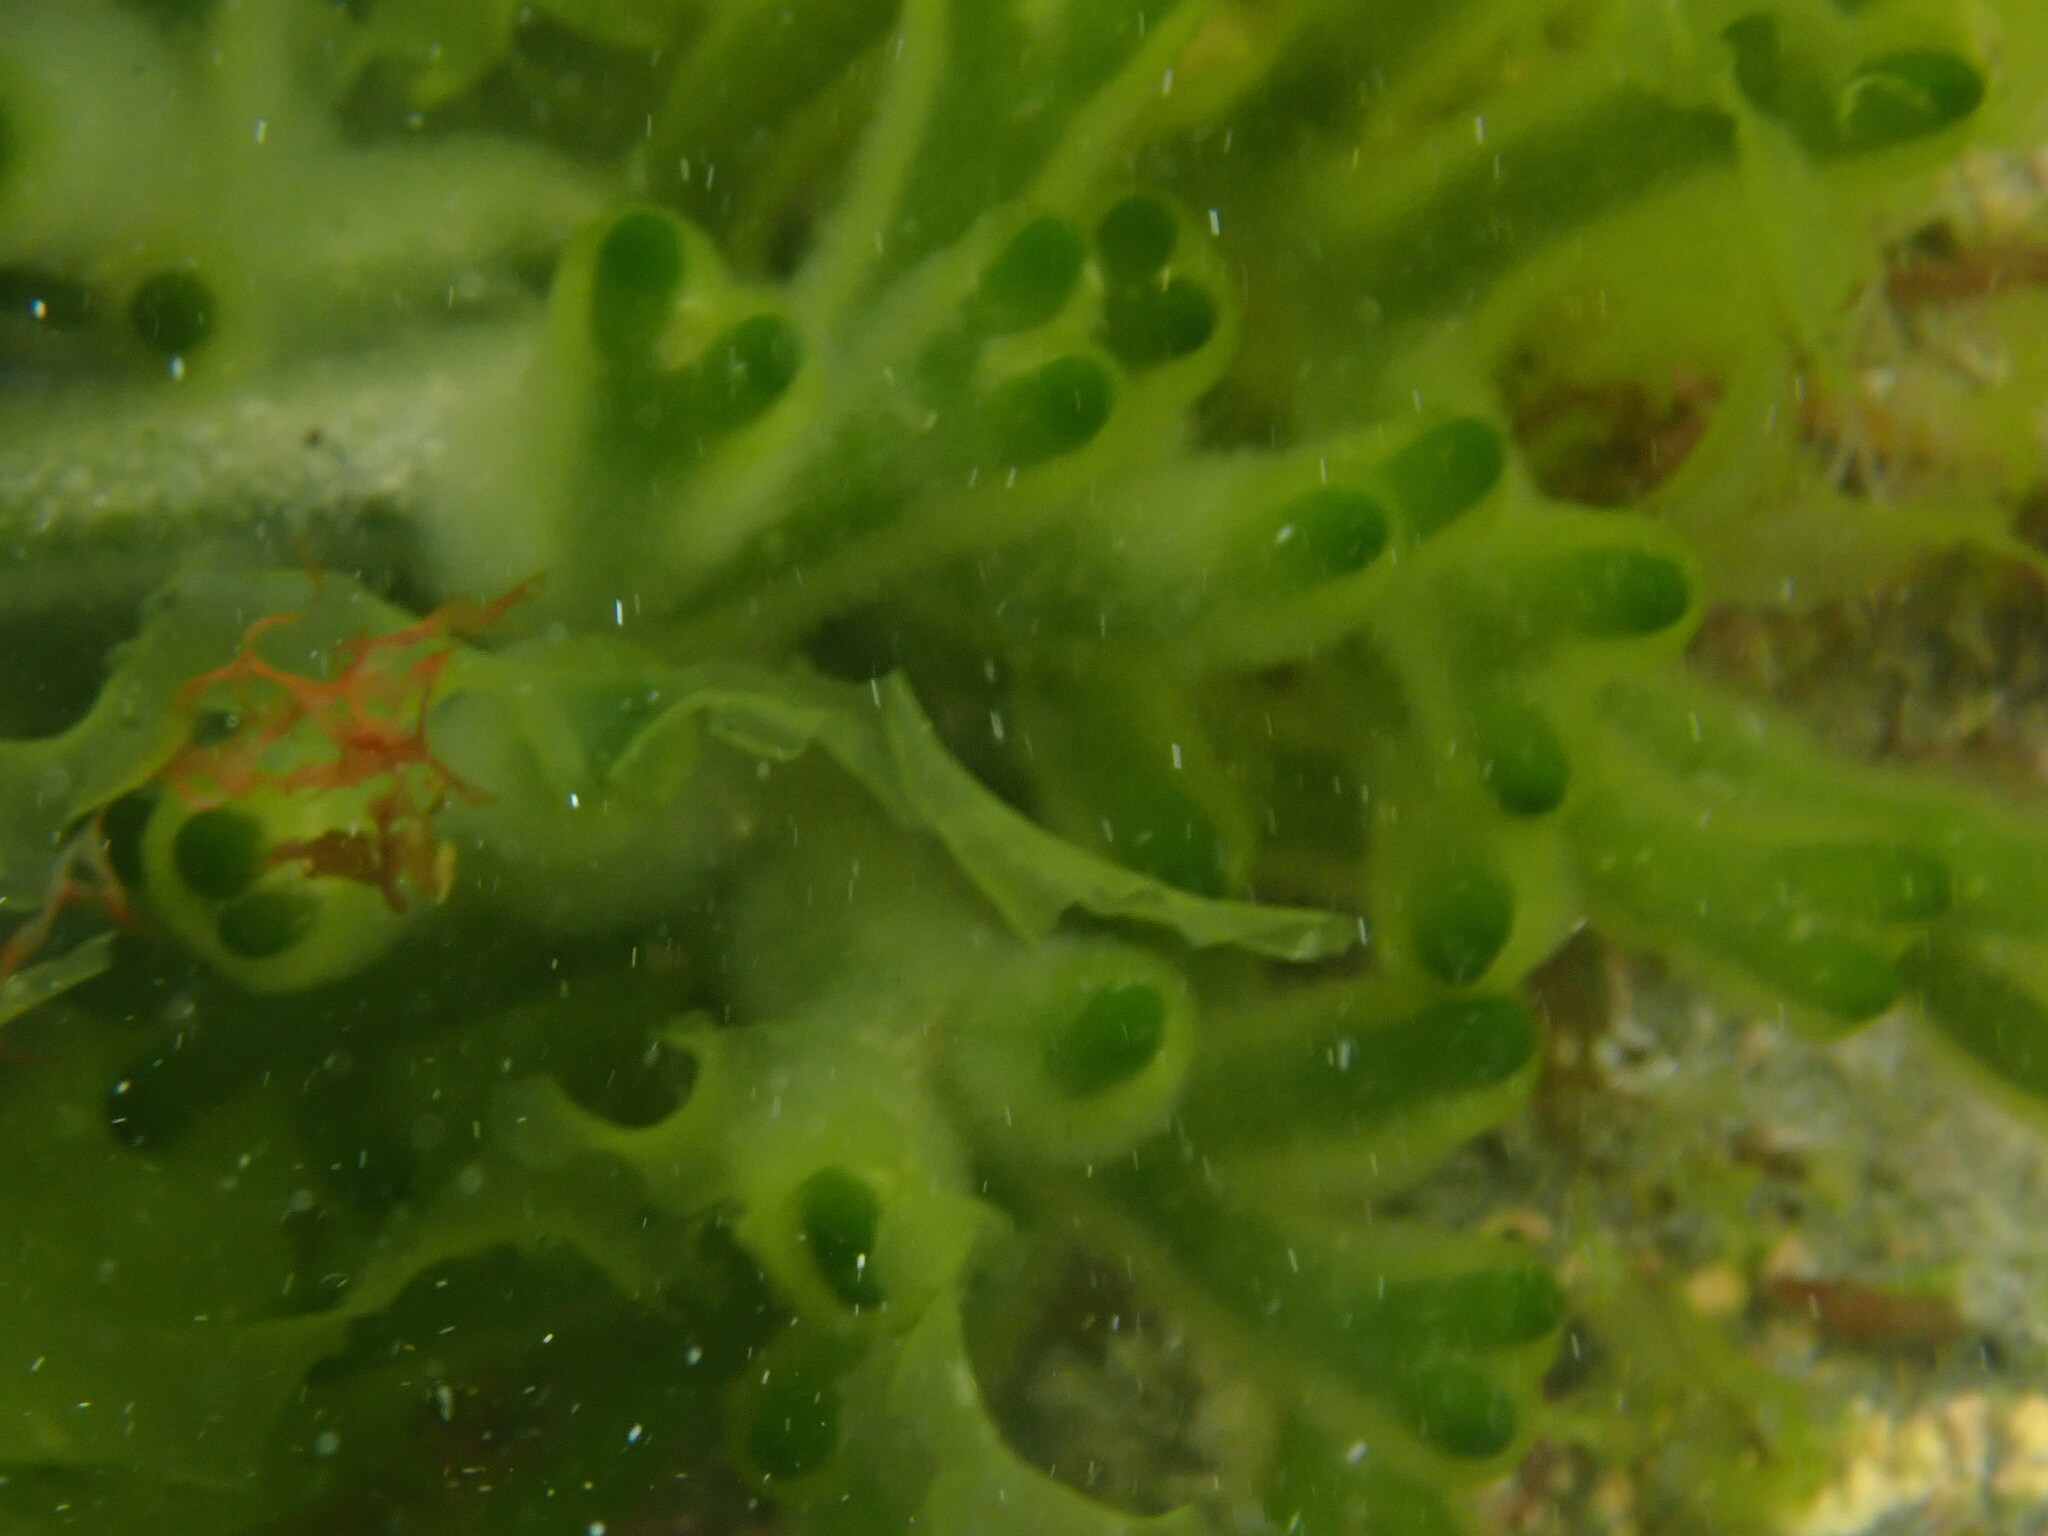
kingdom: Plantae
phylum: Chlorophyta
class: Ulvophyceae
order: Ulvales
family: Ulvaceae
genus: Ulva
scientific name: Ulva
